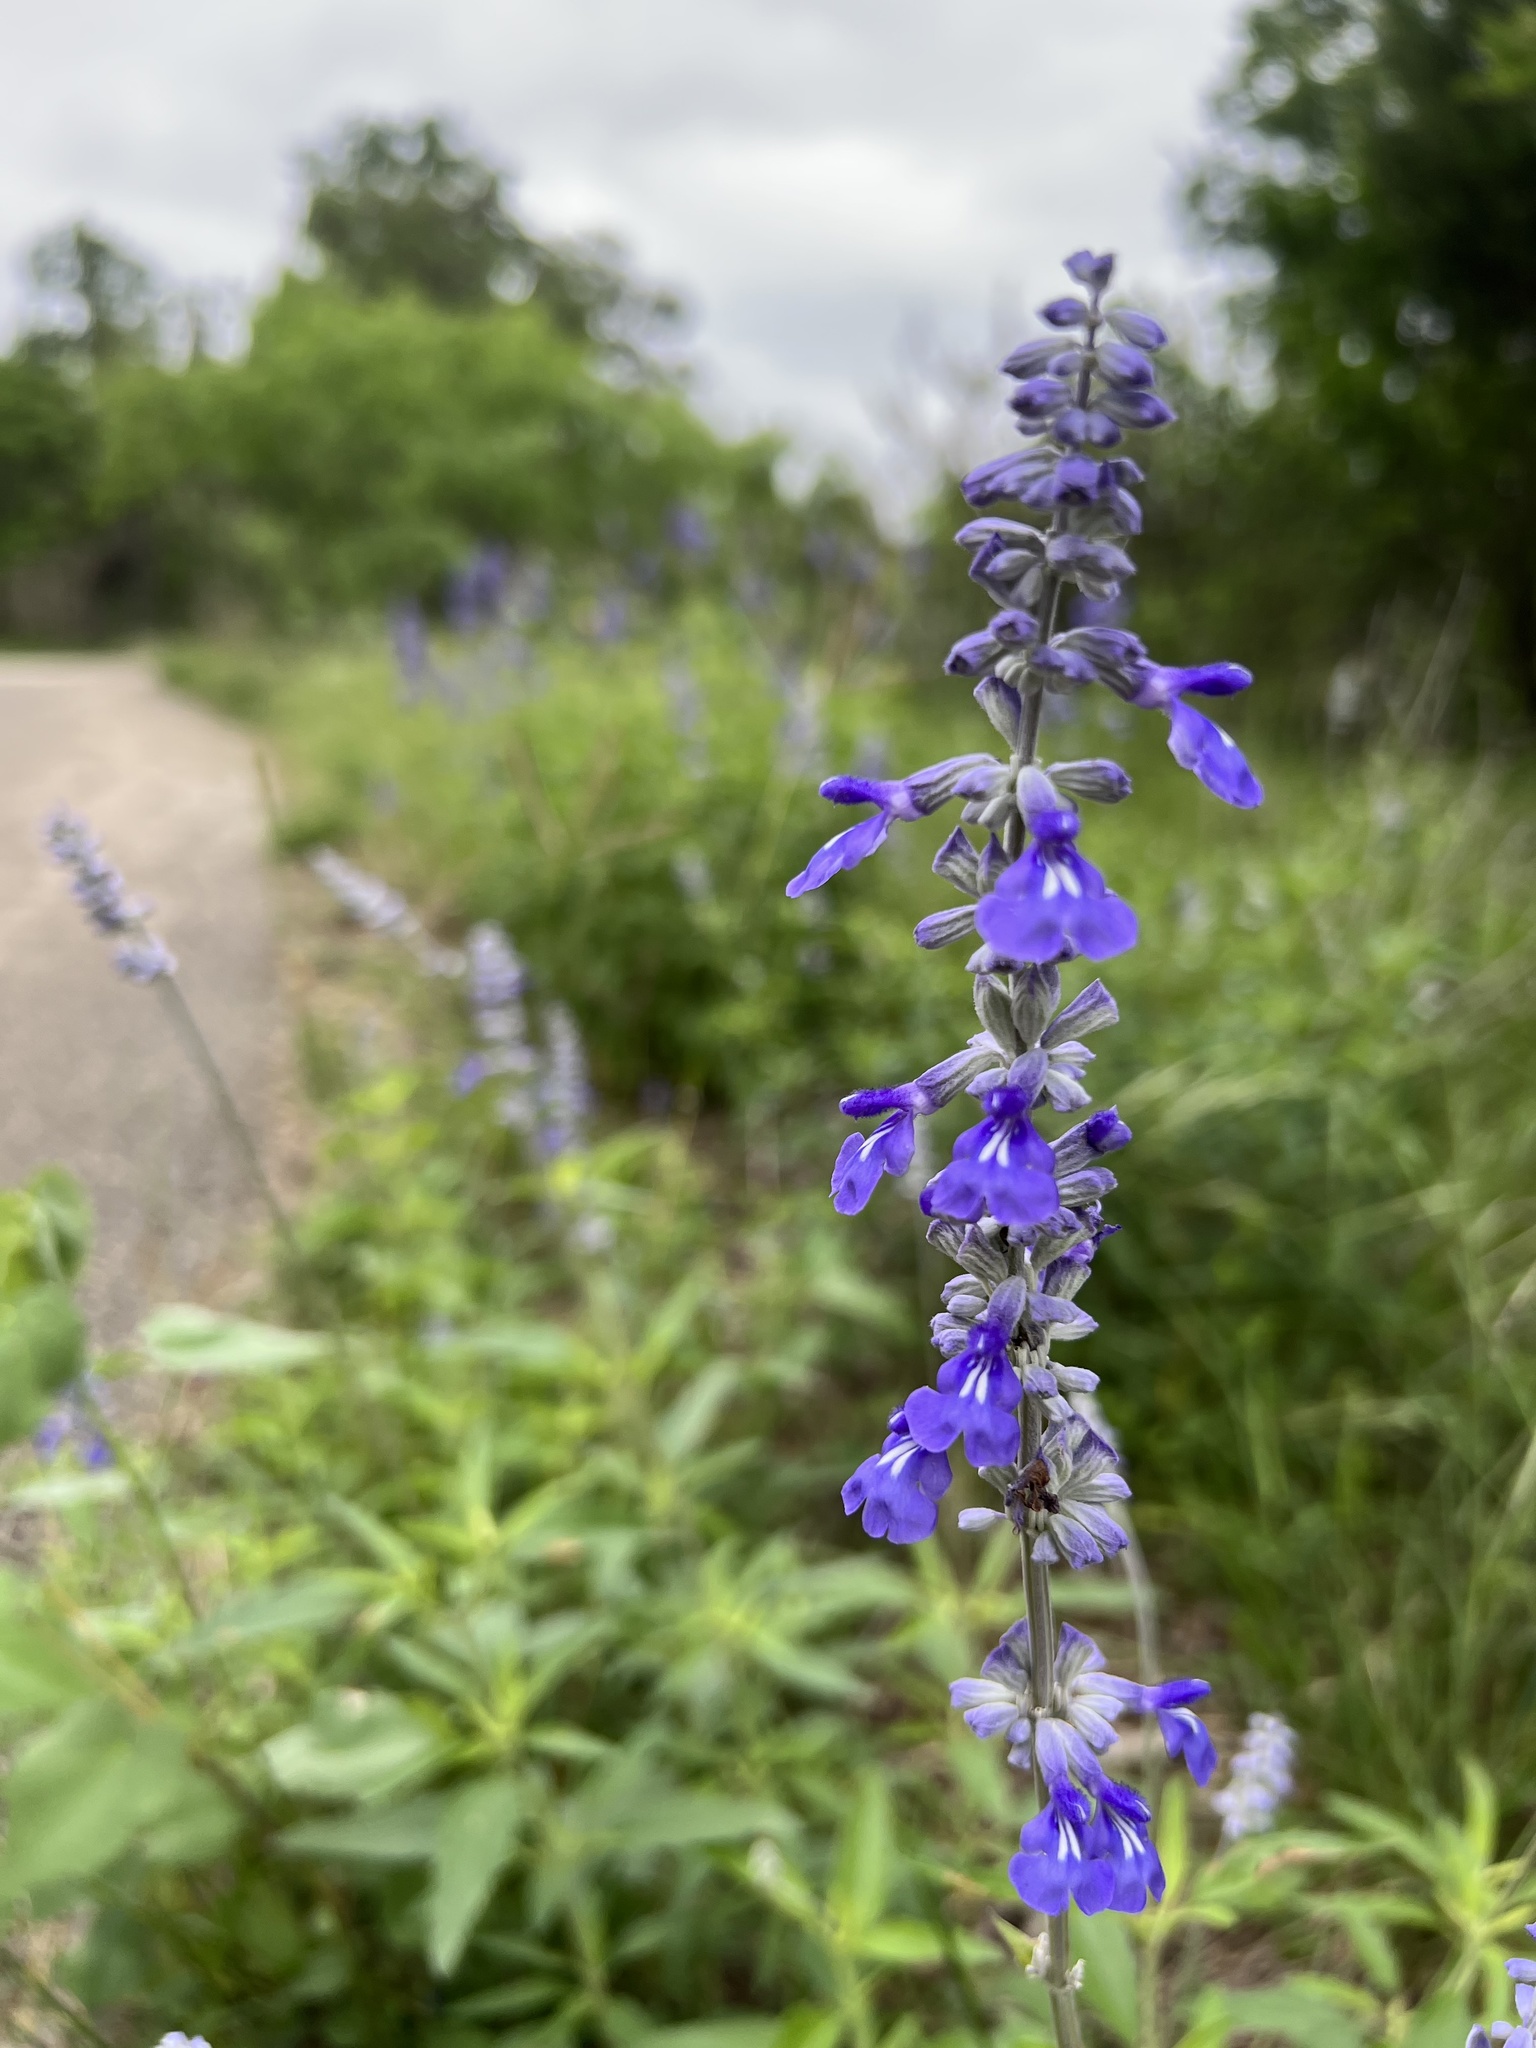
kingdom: Plantae
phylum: Tracheophyta
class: Magnoliopsida
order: Lamiales
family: Lamiaceae
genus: Salvia
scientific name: Salvia farinacea
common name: Mealy sage
